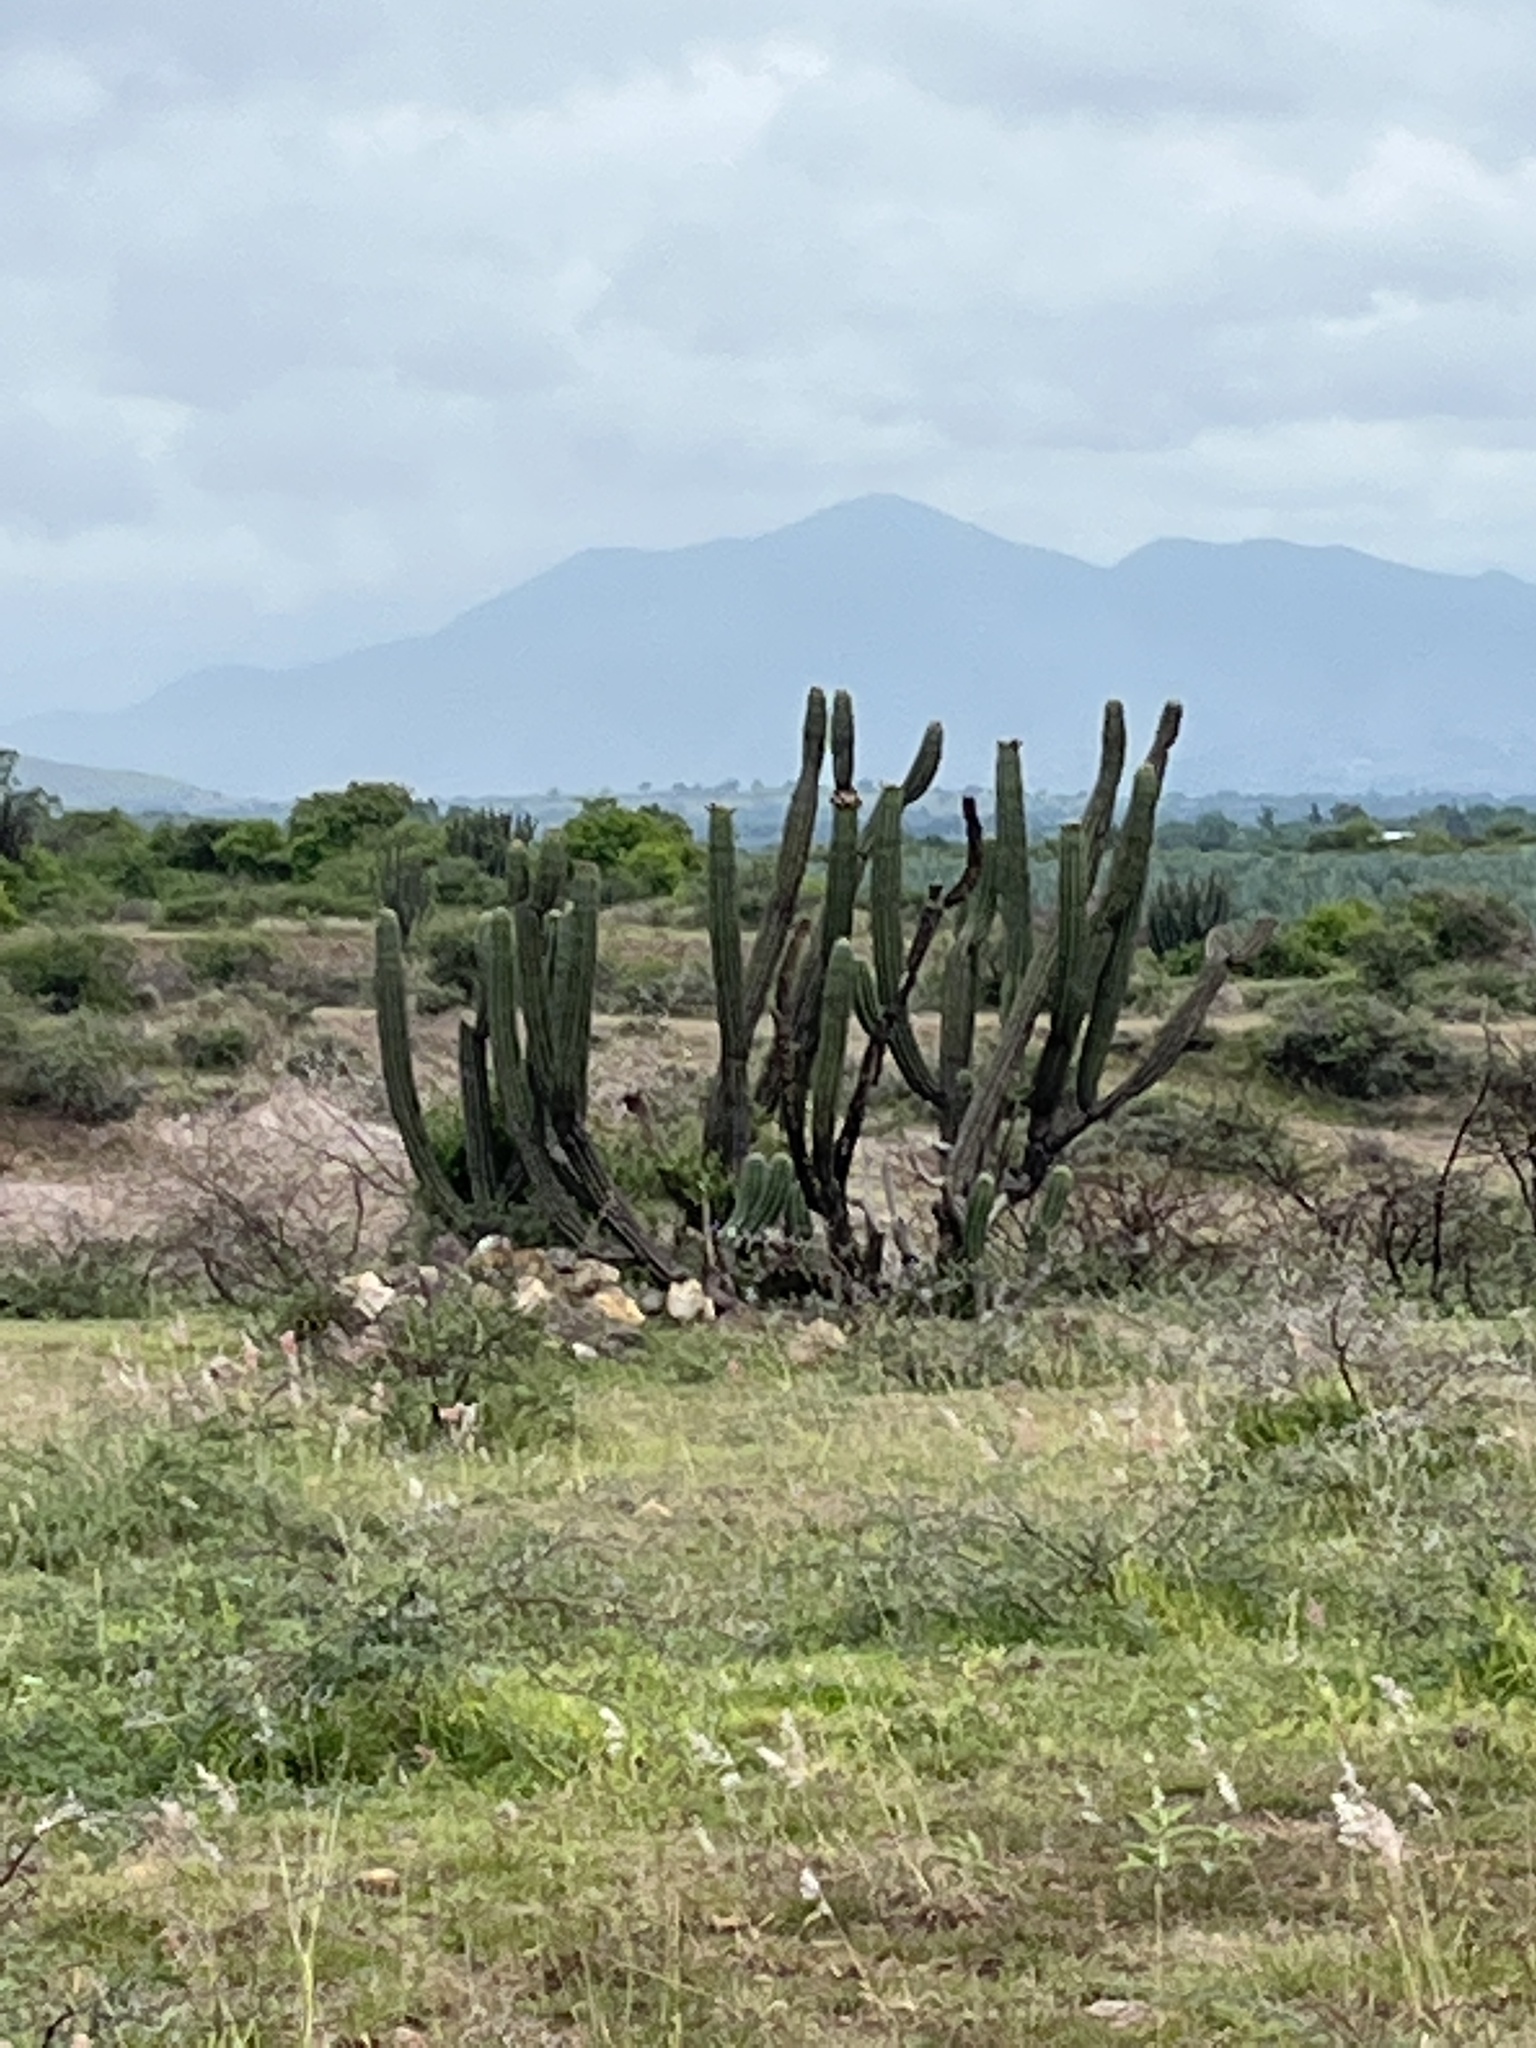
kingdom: Plantae
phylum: Tracheophyta
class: Magnoliopsida
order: Caryophyllales
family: Cactaceae
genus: Stenocereus
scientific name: Stenocereus treleasei
